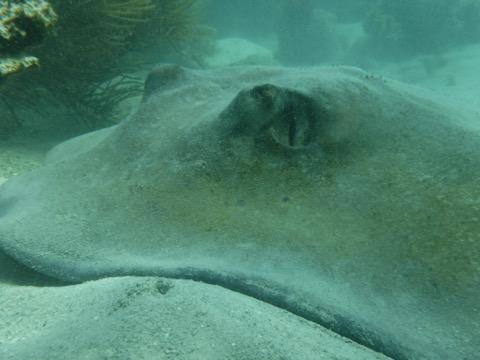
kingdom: Animalia
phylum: Chordata
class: Elasmobranchii
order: Myliobatiformes
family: Dasyatidae
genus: Hypanus
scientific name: Hypanus americanus
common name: Southern stingray
